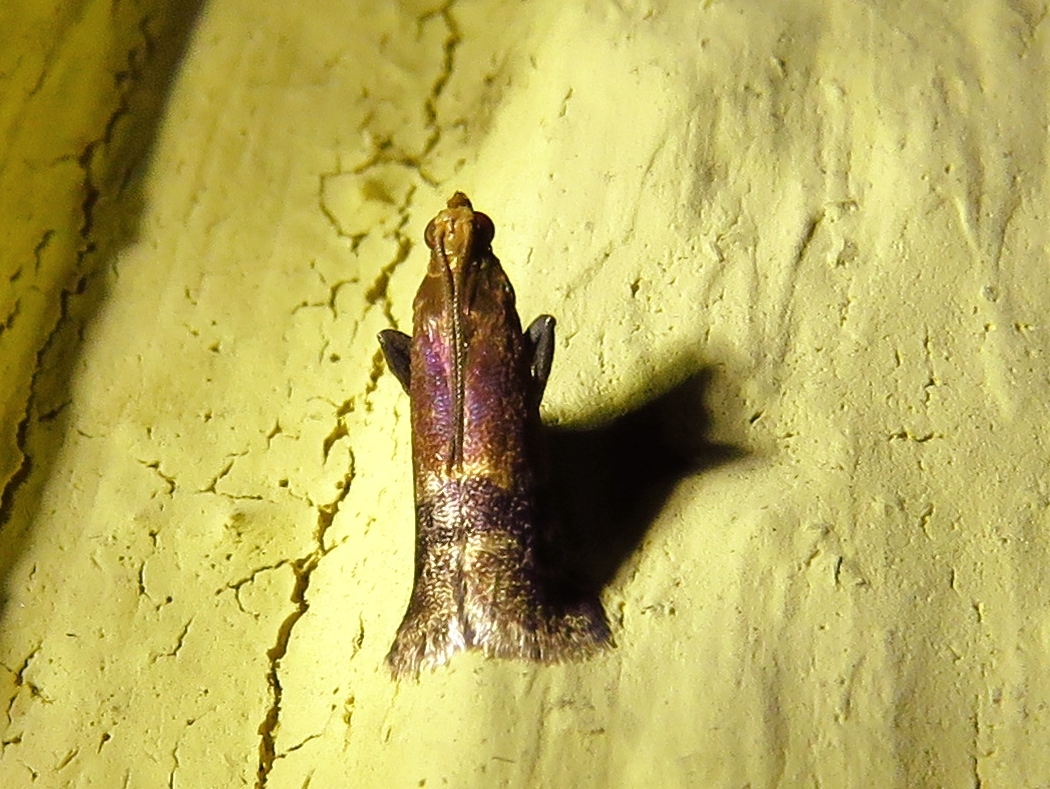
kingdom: Animalia
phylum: Arthropoda
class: Insecta
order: Lepidoptera
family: Pyralidae
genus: Eulogia
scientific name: Eulogia ochrifrontella
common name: Broad-banded eulogia moth
